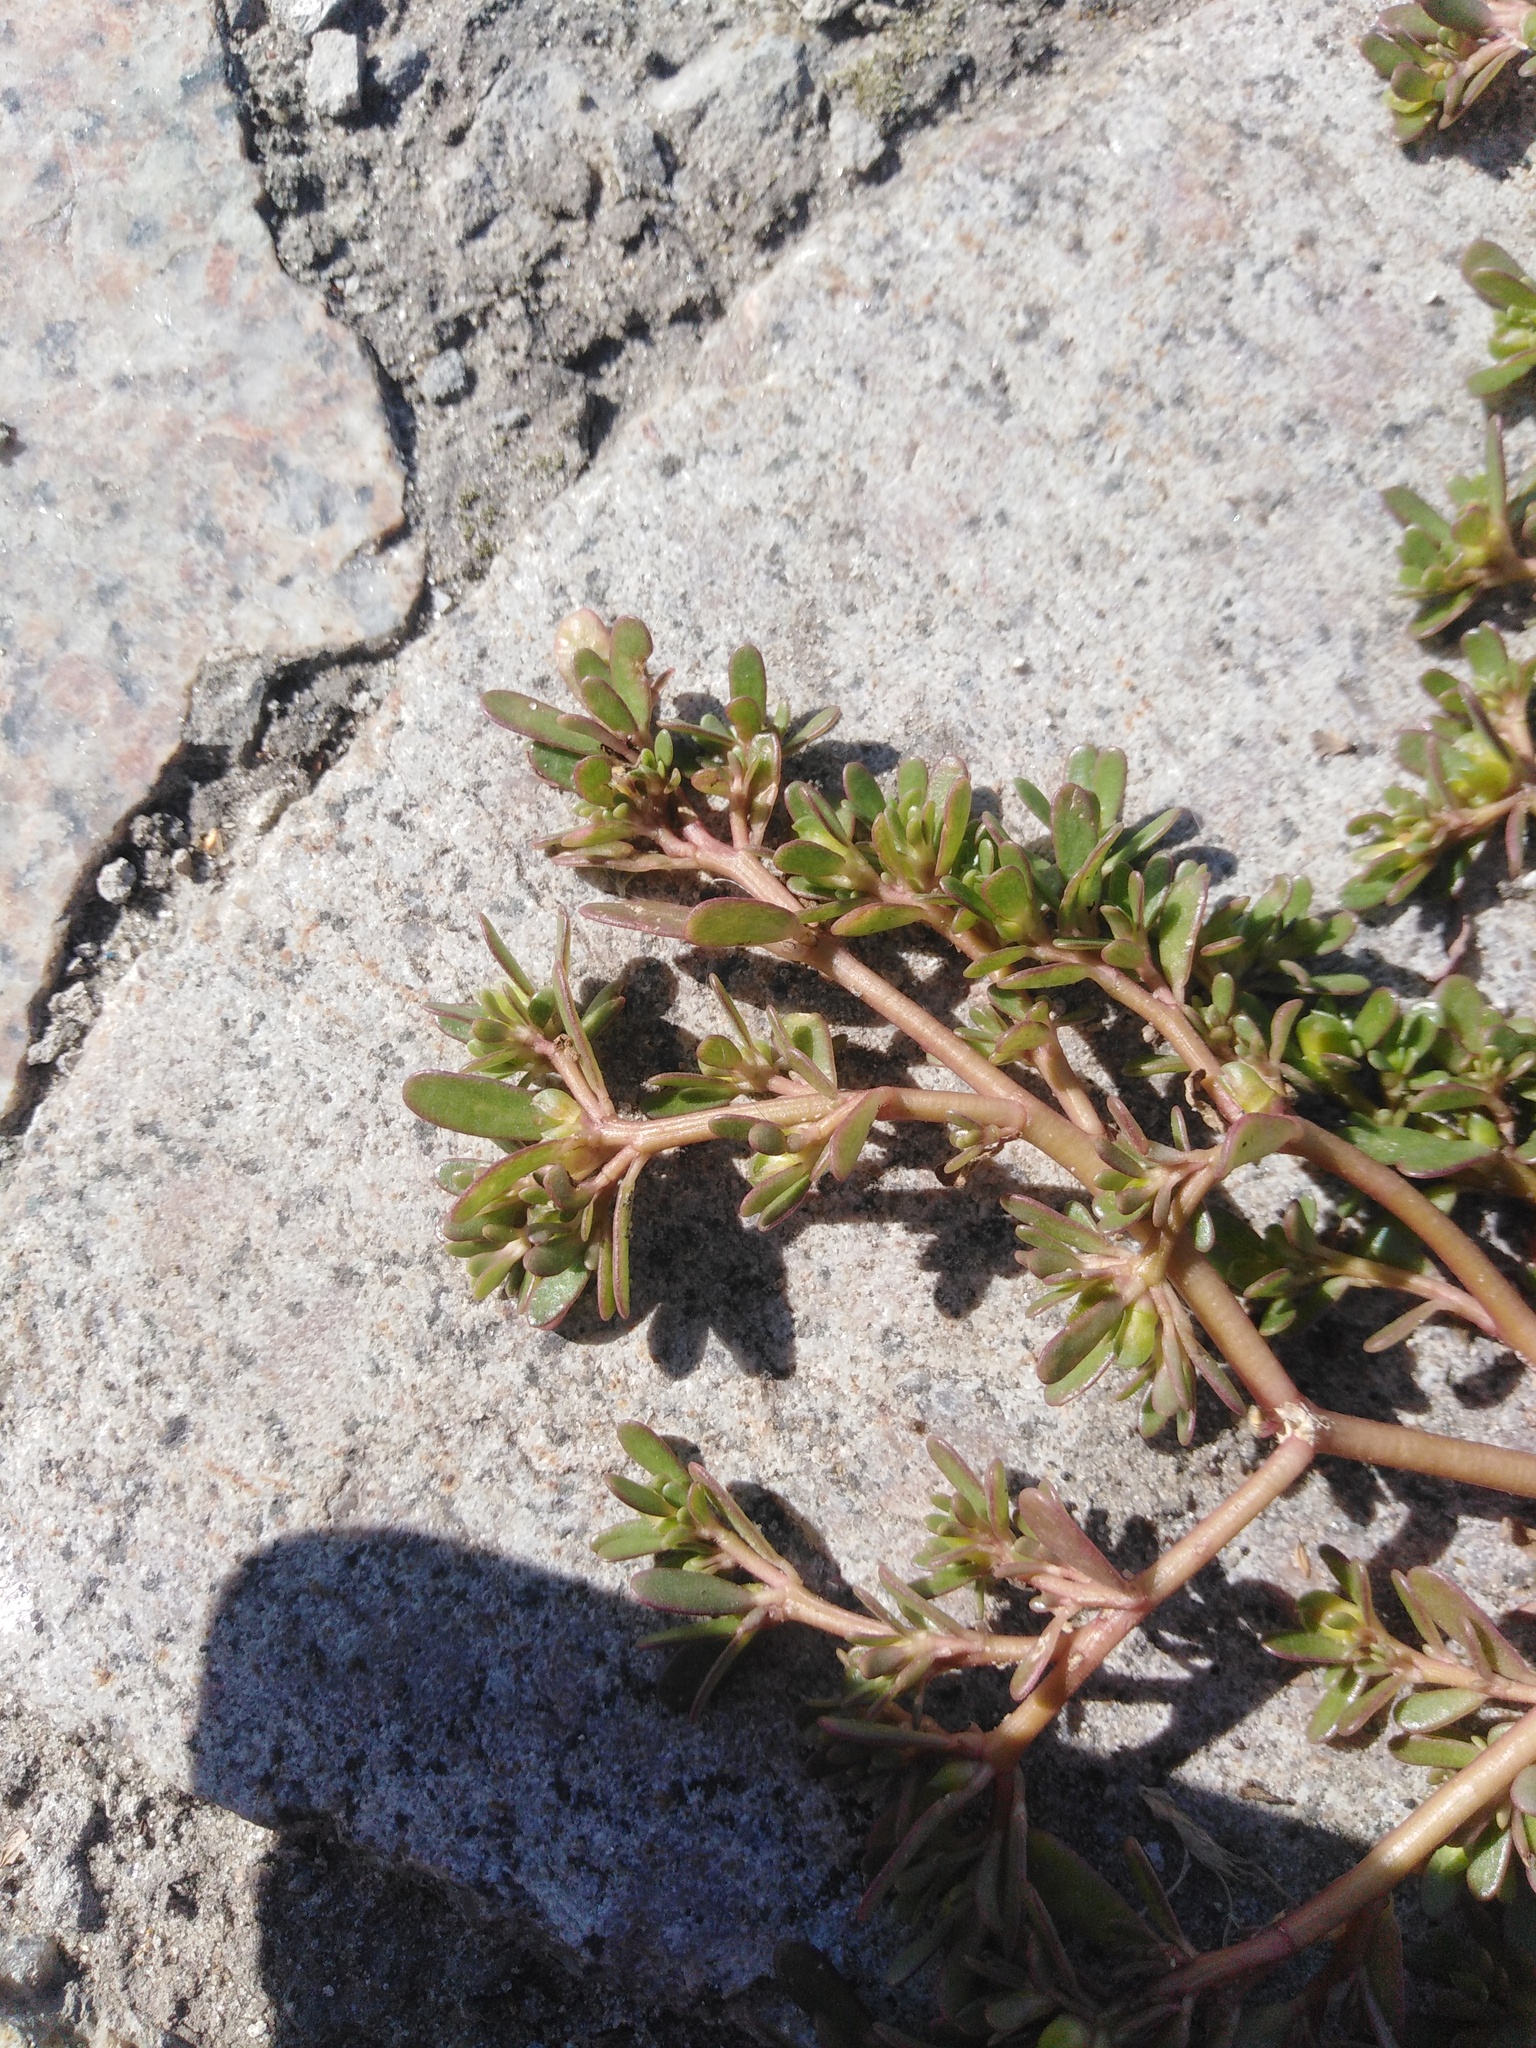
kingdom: Plantae
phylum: Tracheophyta
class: Magnoliopsida
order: Caryophyllales
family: Portulacaceae
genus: Portulaca
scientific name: Portulaca oleracea
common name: Common purslane
